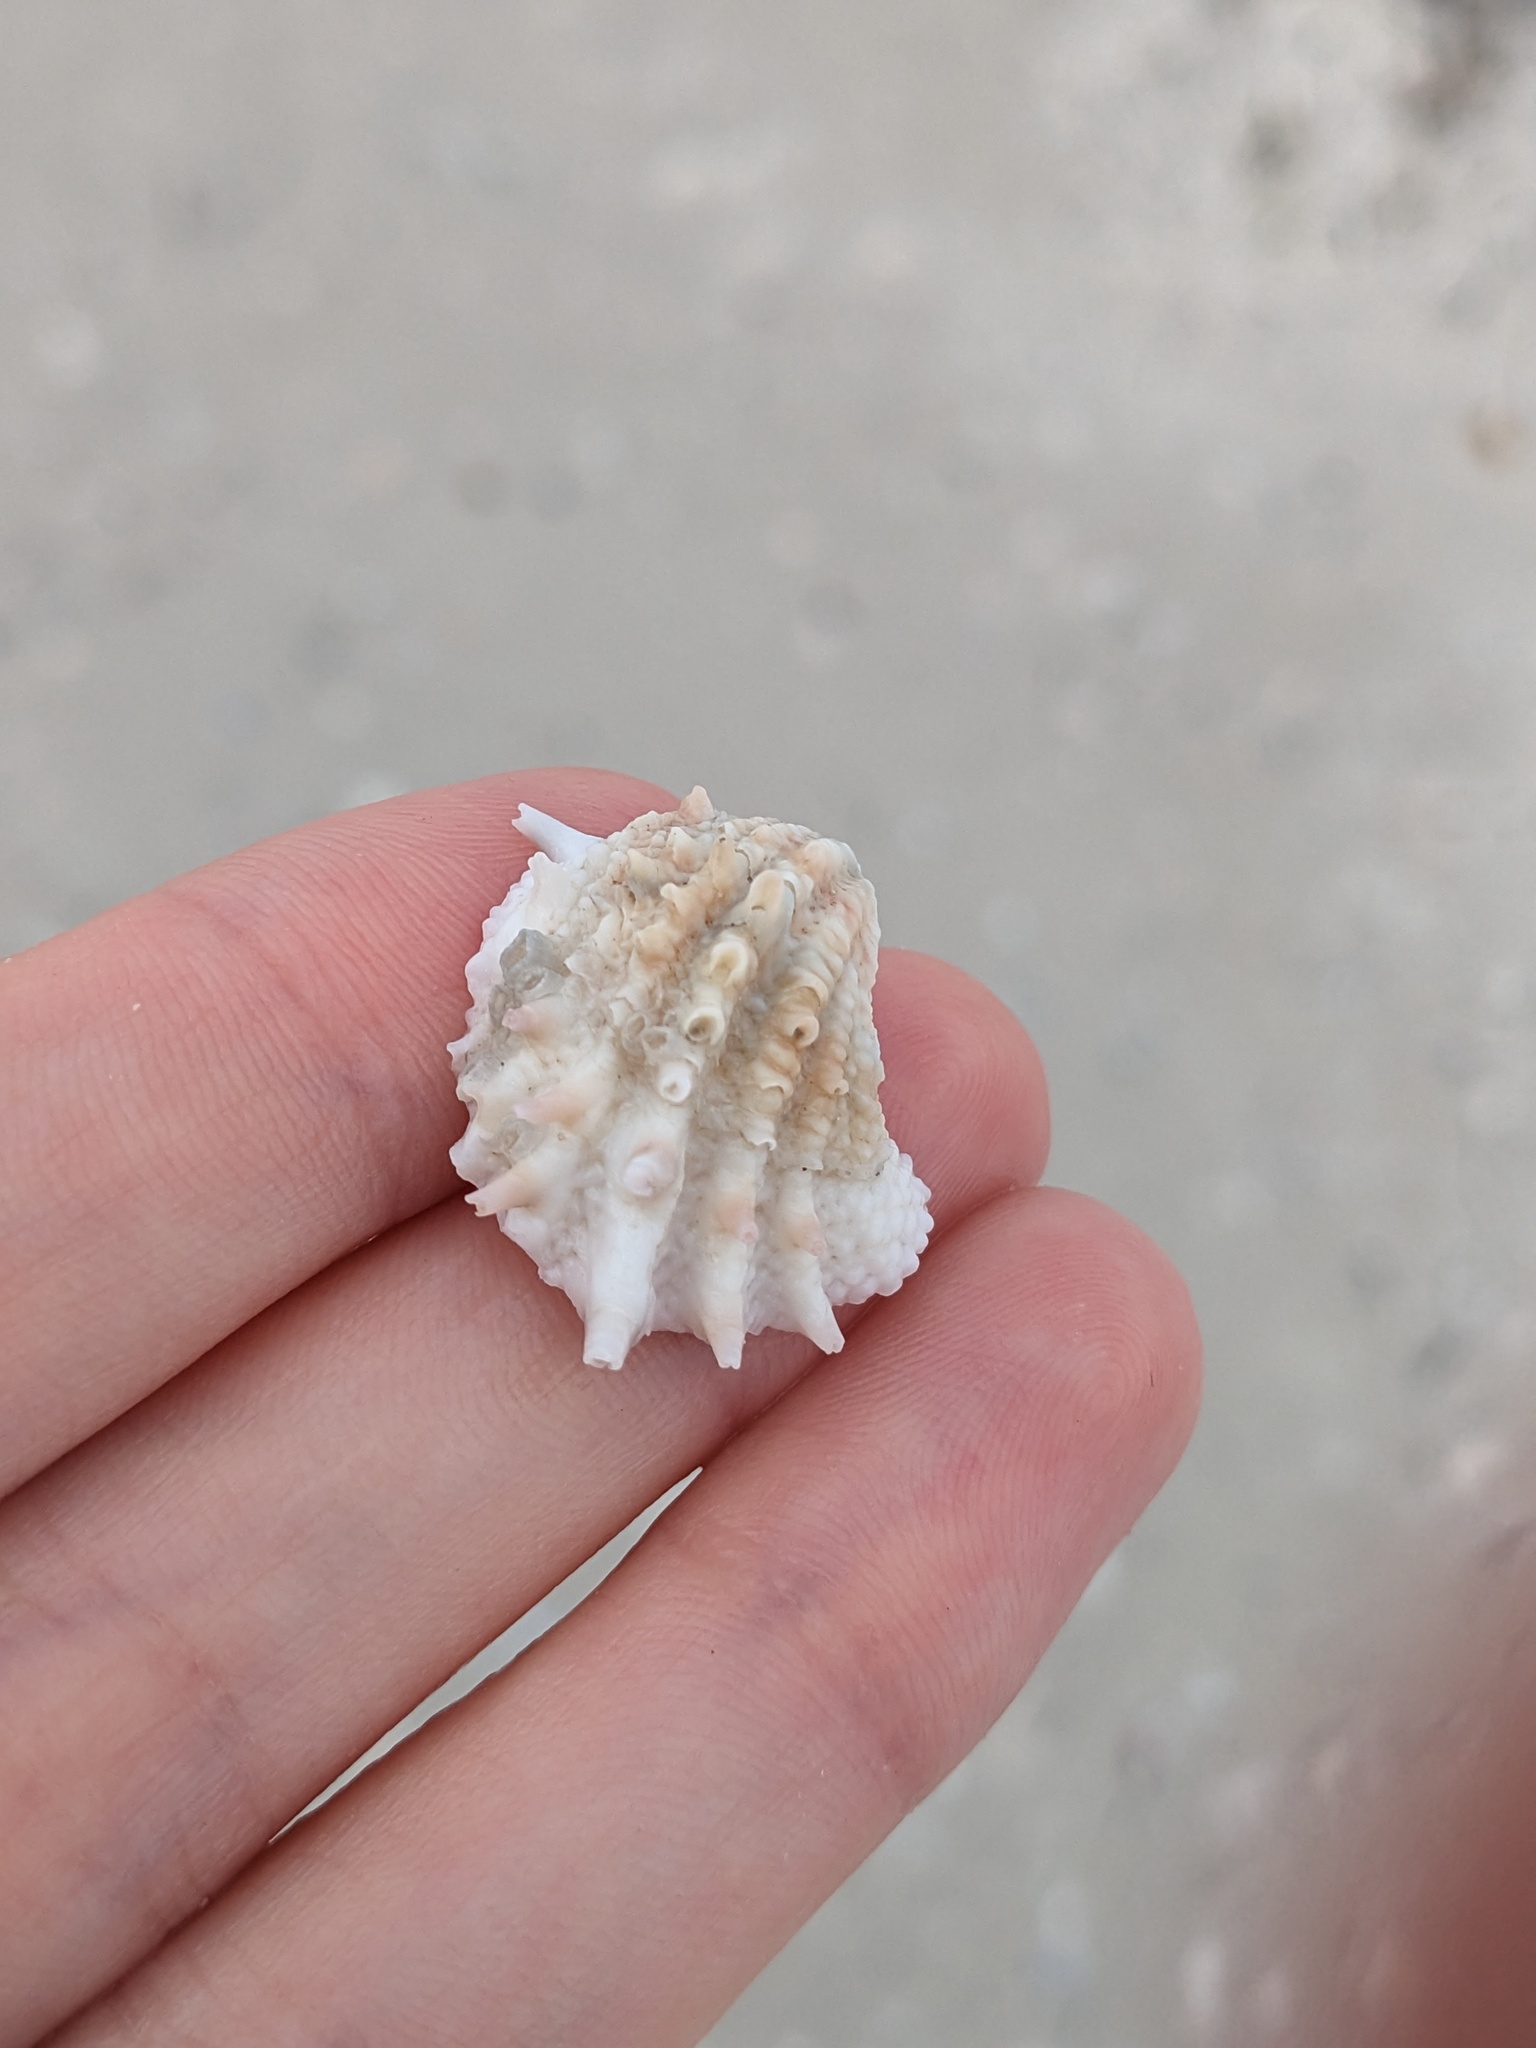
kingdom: Animalia
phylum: Mollusca
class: Bivalvia
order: Venerida
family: Chamidae
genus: Arcinella
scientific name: Arcinella cornuta
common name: Florida spiny jewel box
